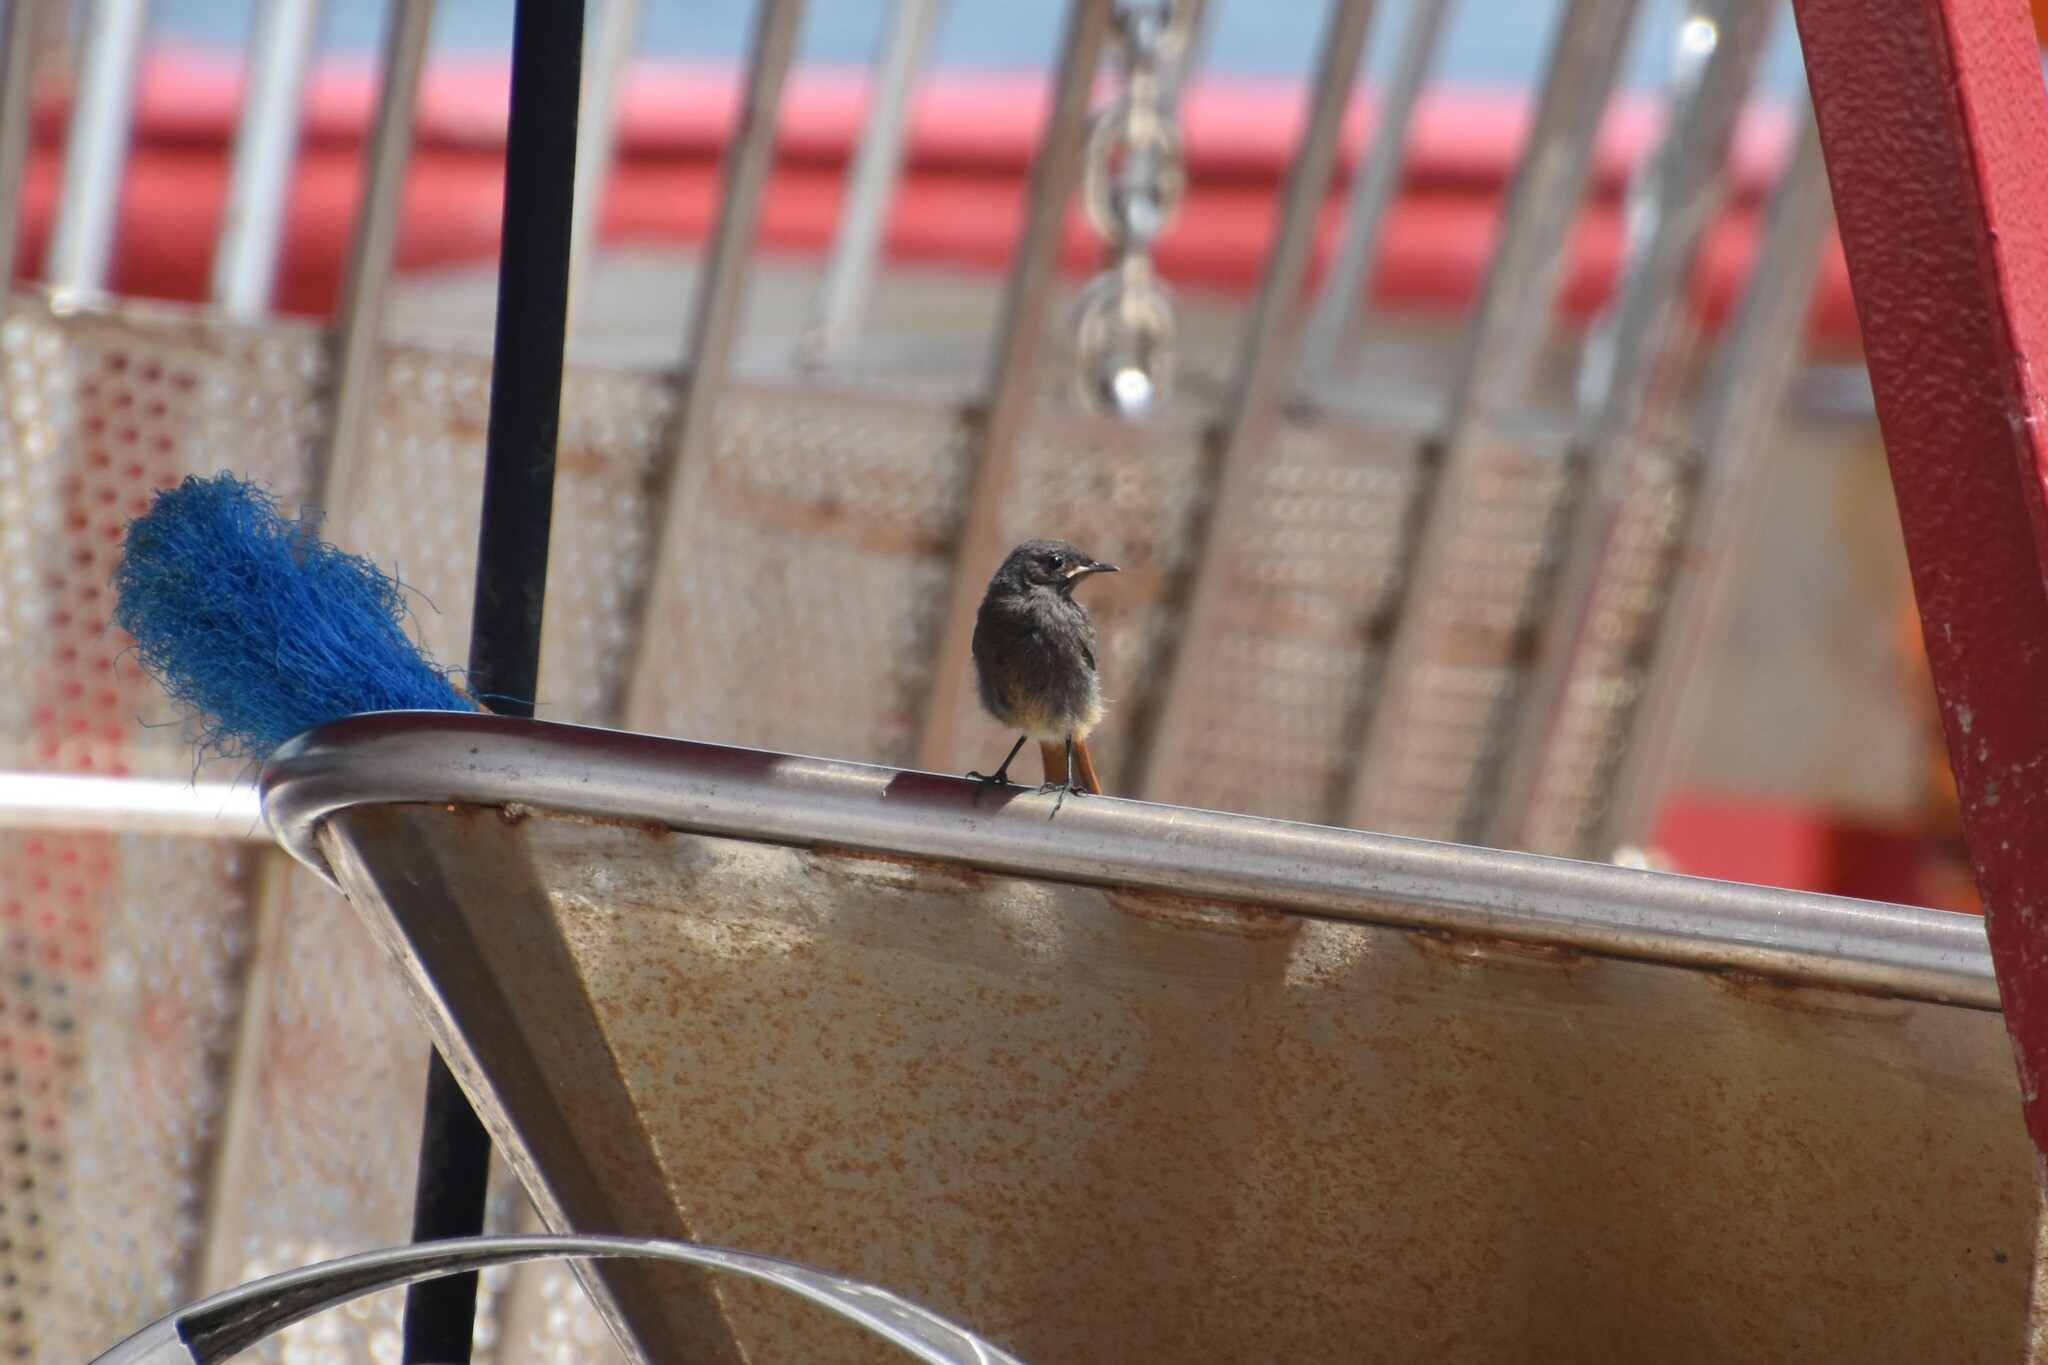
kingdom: Animalia
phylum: Chordata
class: Aves
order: Passeriformes
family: Muscicapidae
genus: Phoenicurus
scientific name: Phoenicurus ochruros
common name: Black redstart
